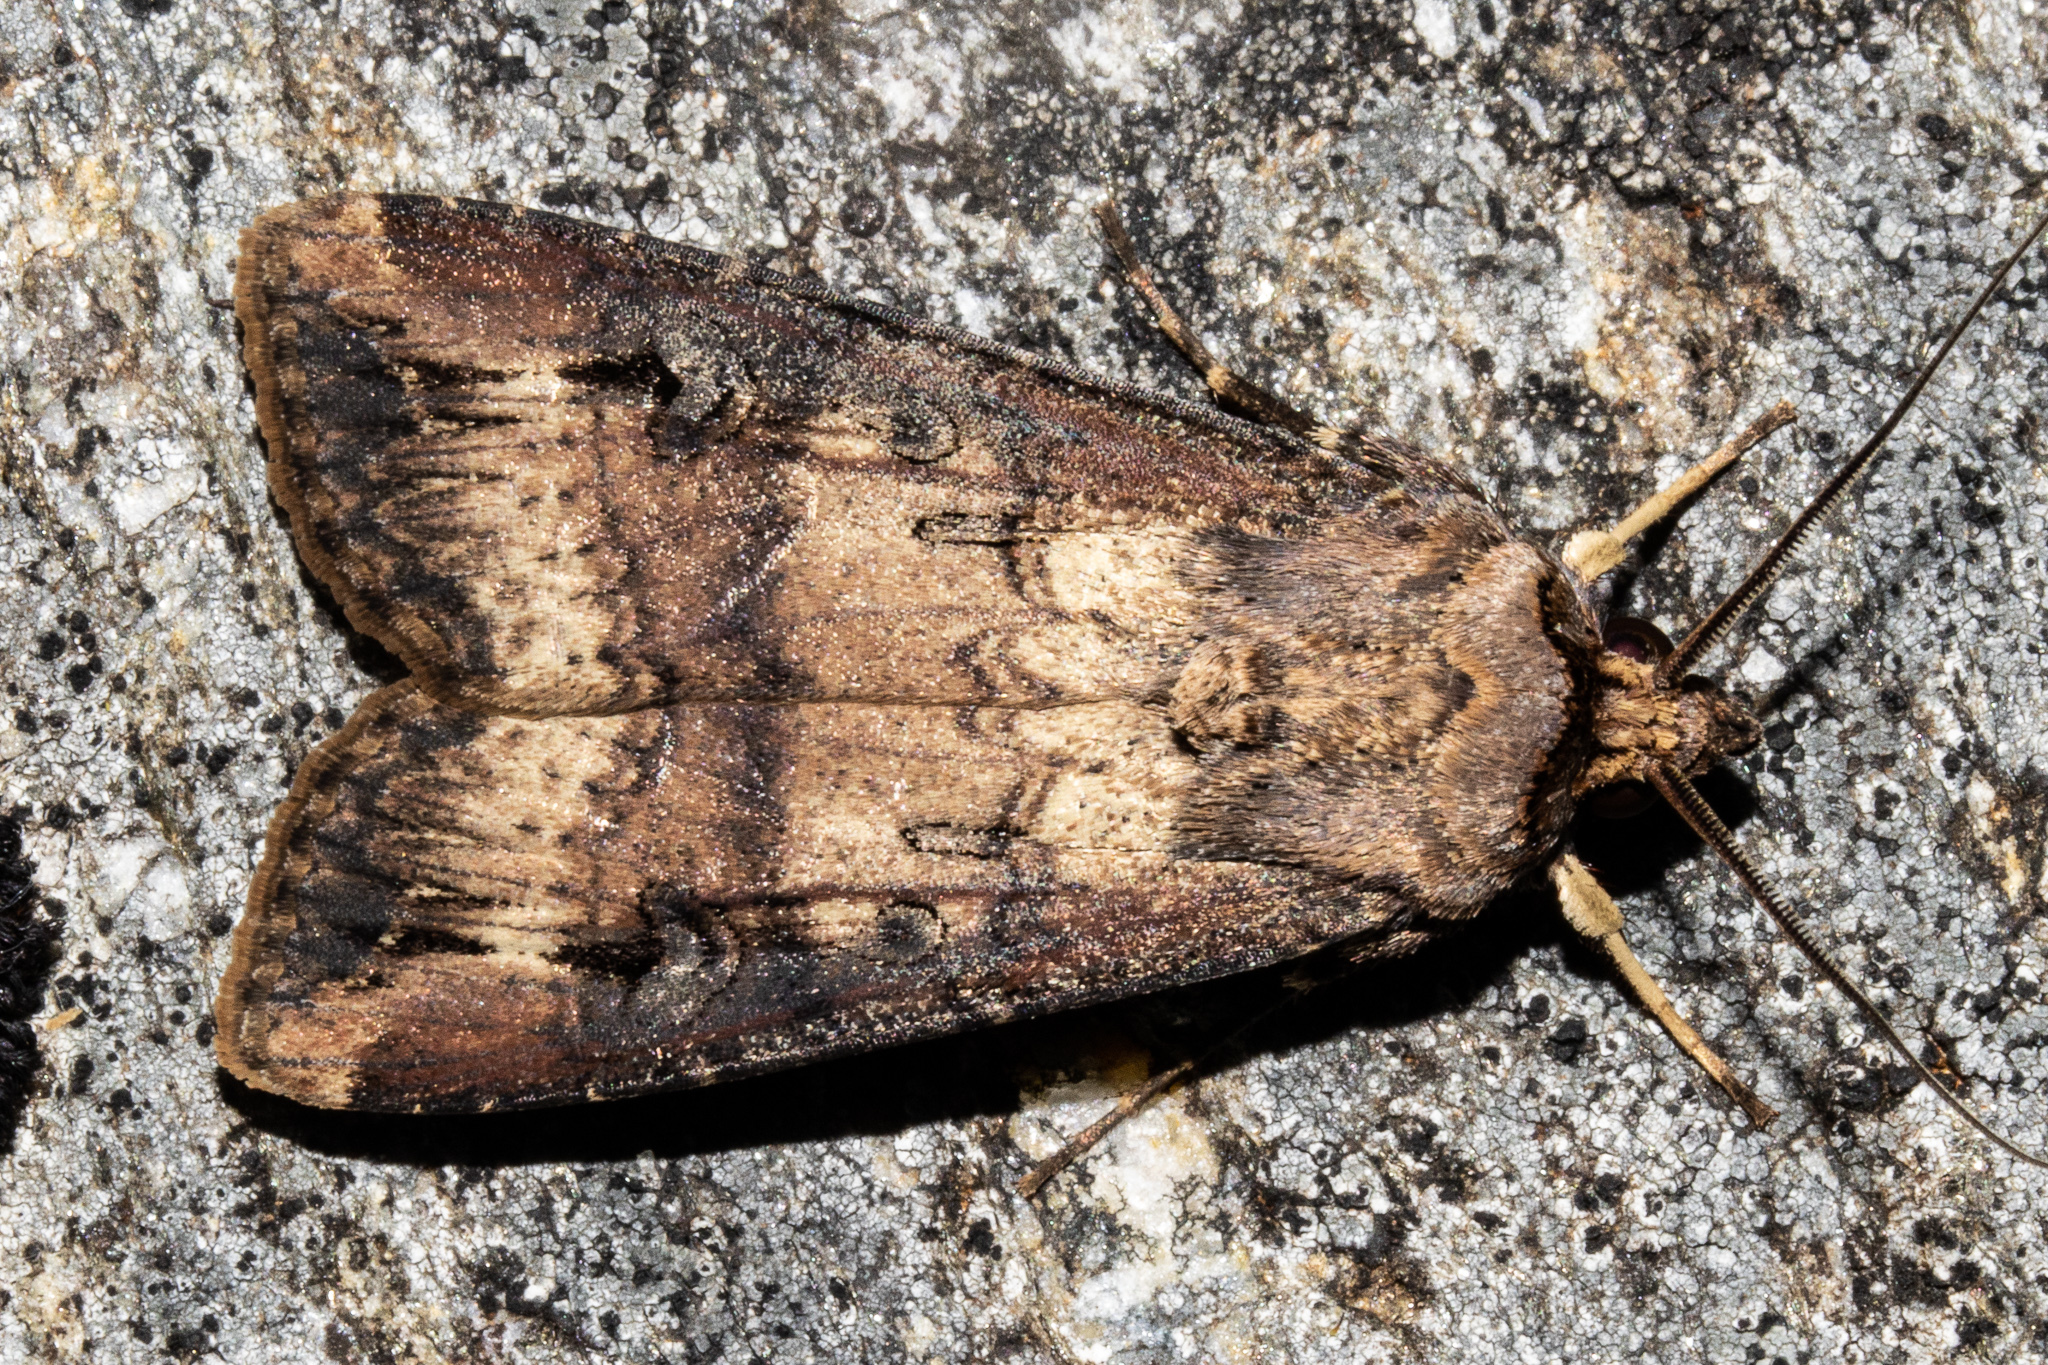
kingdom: Animalia
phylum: Arthropoda
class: Insecta
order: Lepidoptera
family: Noctuidae
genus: Agrotis
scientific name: Agrotis ipsilon
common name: Dark sword-grass
